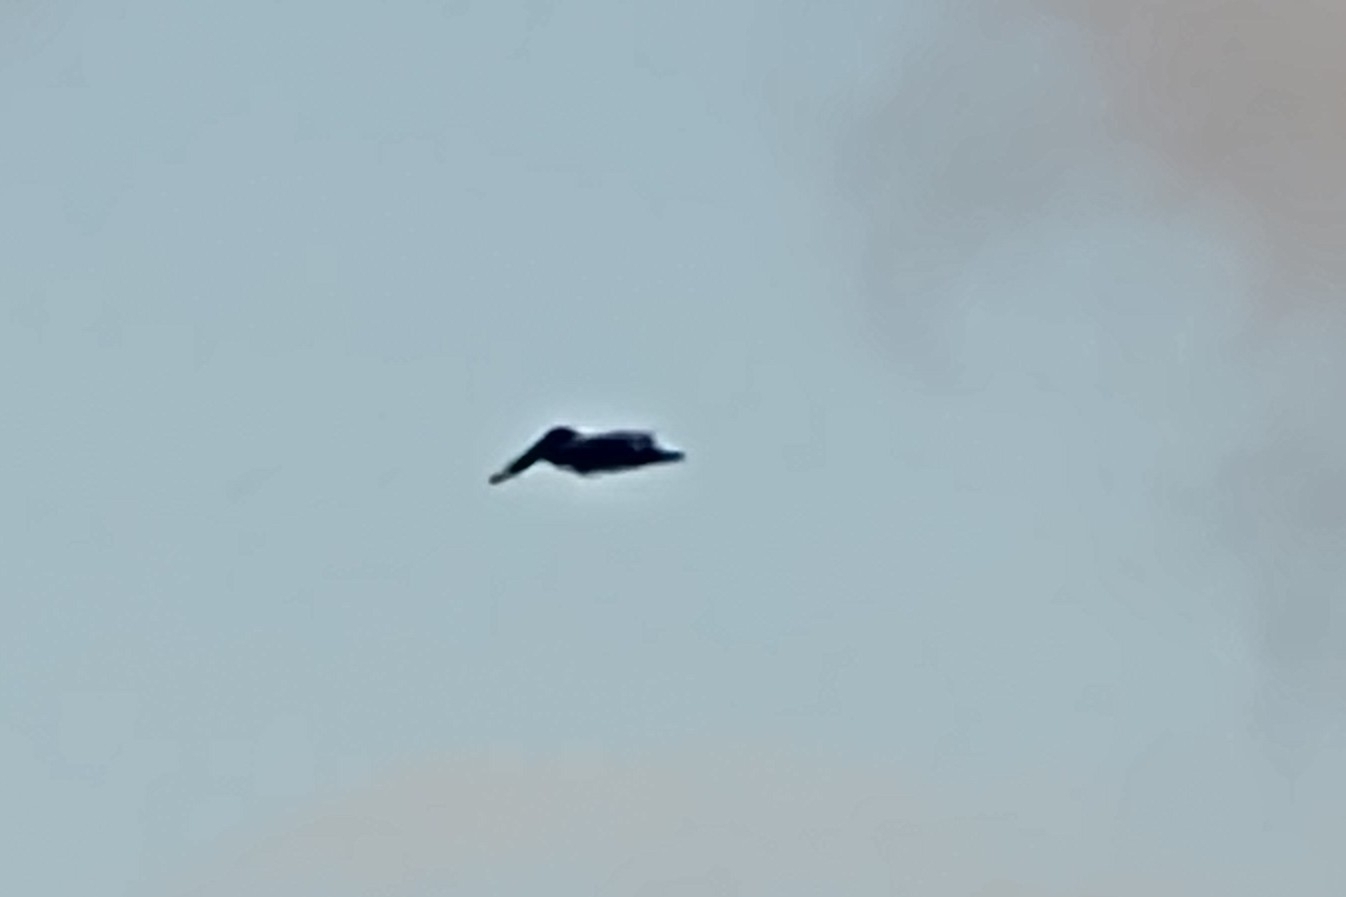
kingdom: Animalia
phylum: Chordata
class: Aves
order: Pelecaniformes
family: Pelecanidae
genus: Pelecanus
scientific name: Pelecanus occidentalis
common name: Brown pelican
